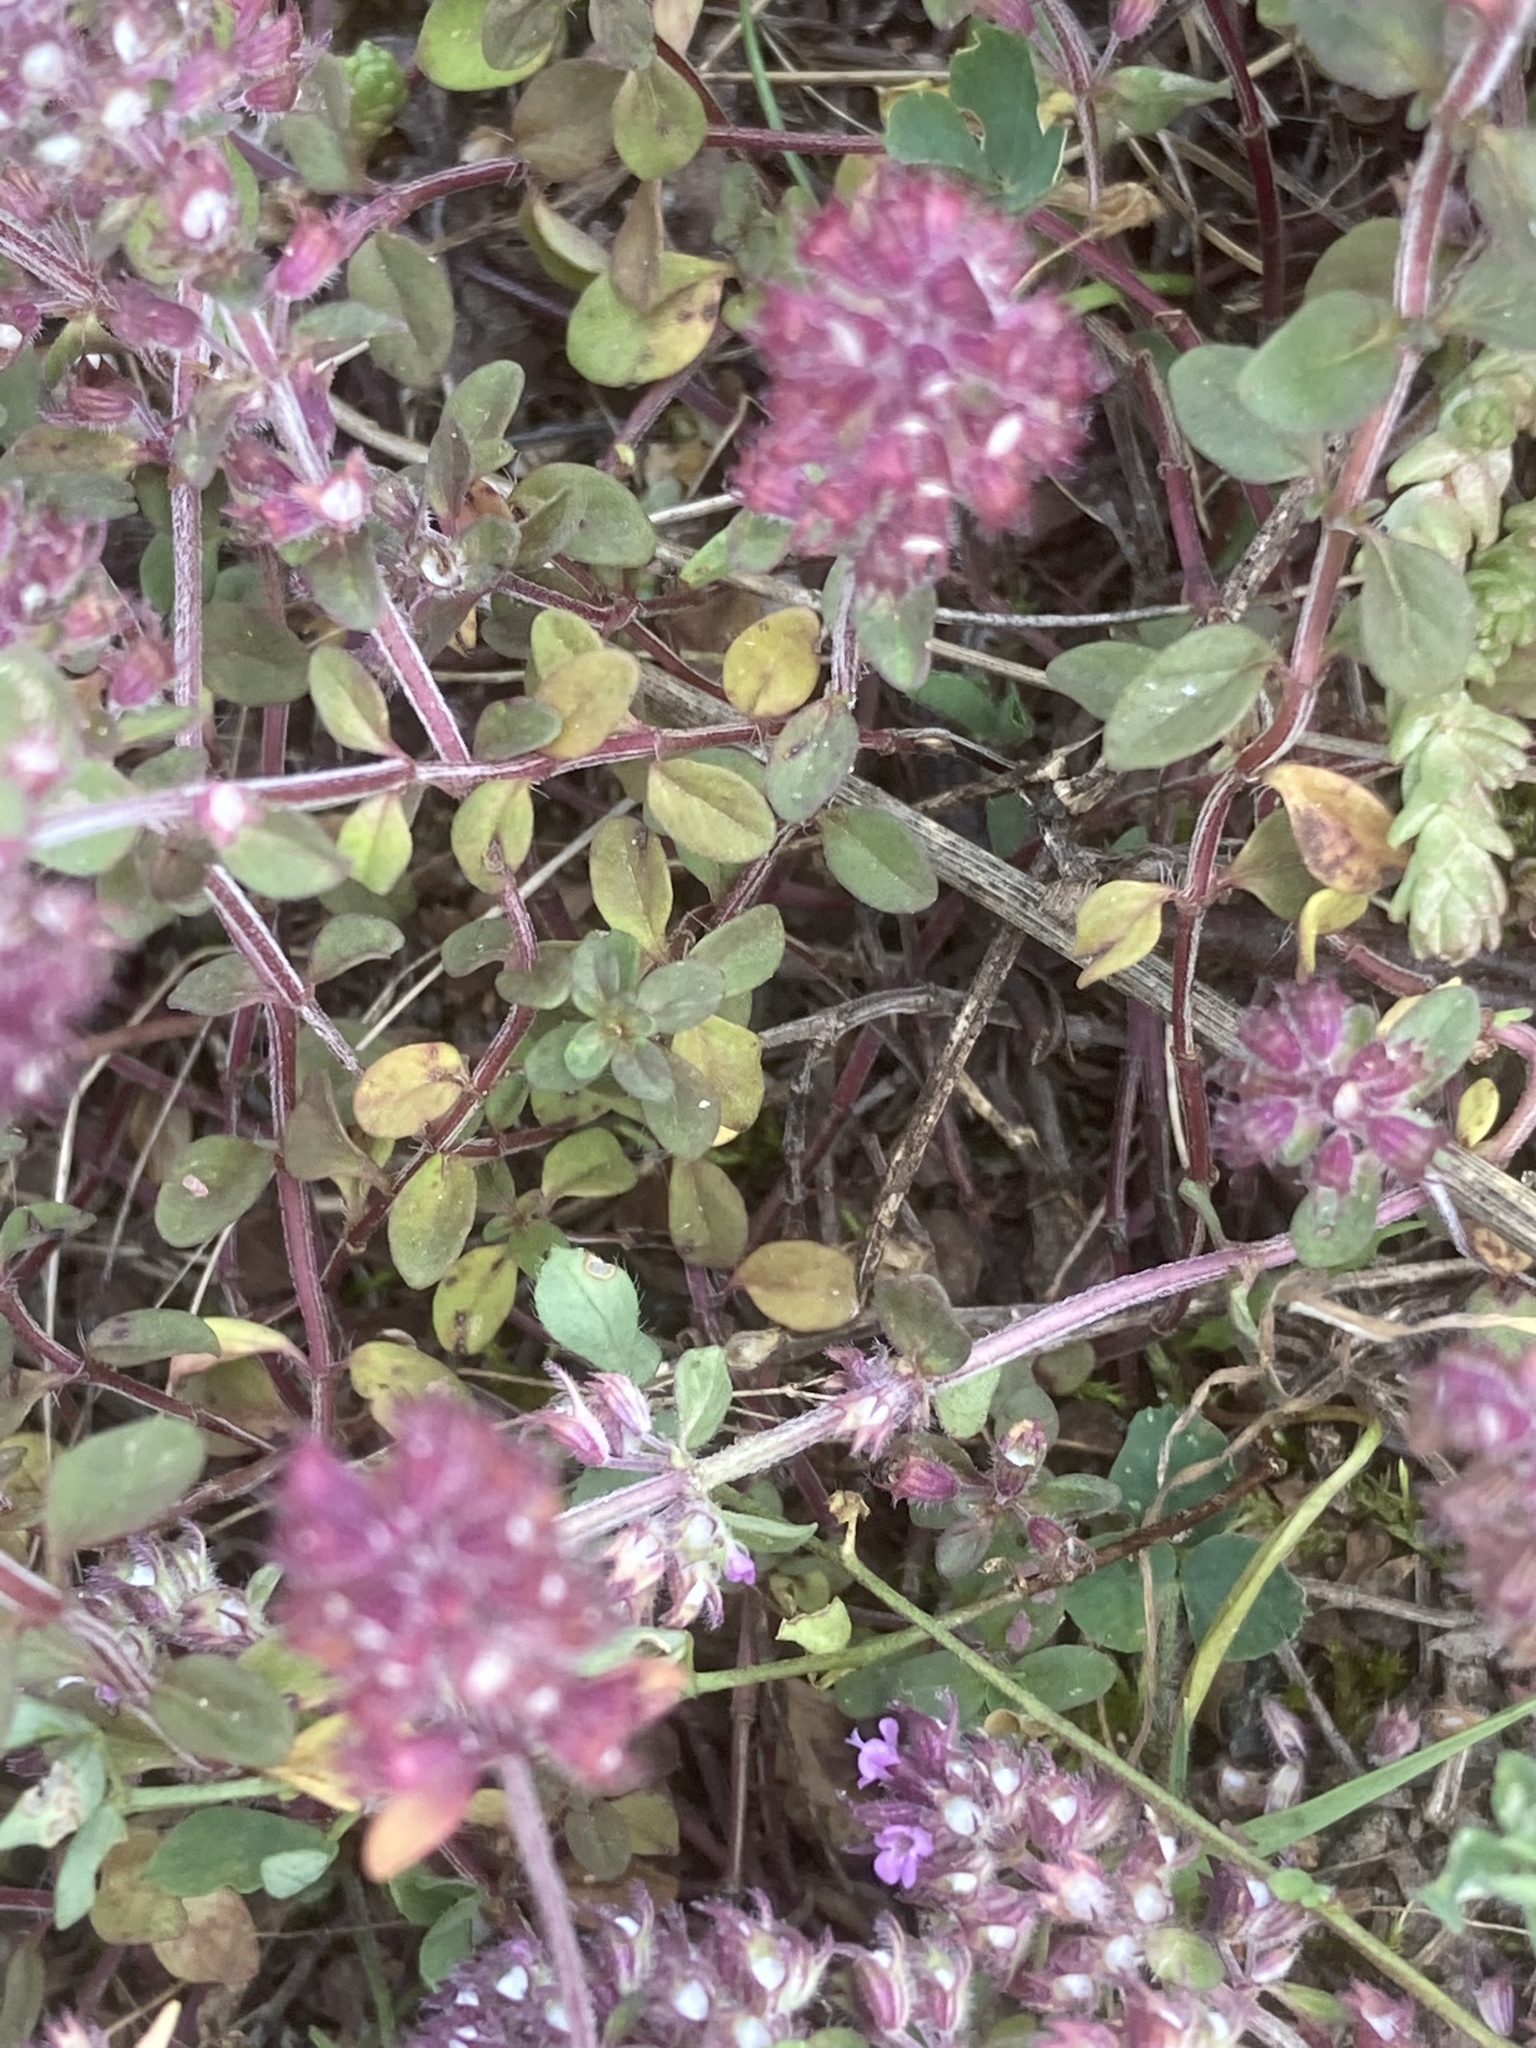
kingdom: Plantae
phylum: Tracheophyta
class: Magnoliopsida
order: Lamiales
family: Lamiaceae
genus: Thymus
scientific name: Thymus pulegioides
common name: Large thyme
